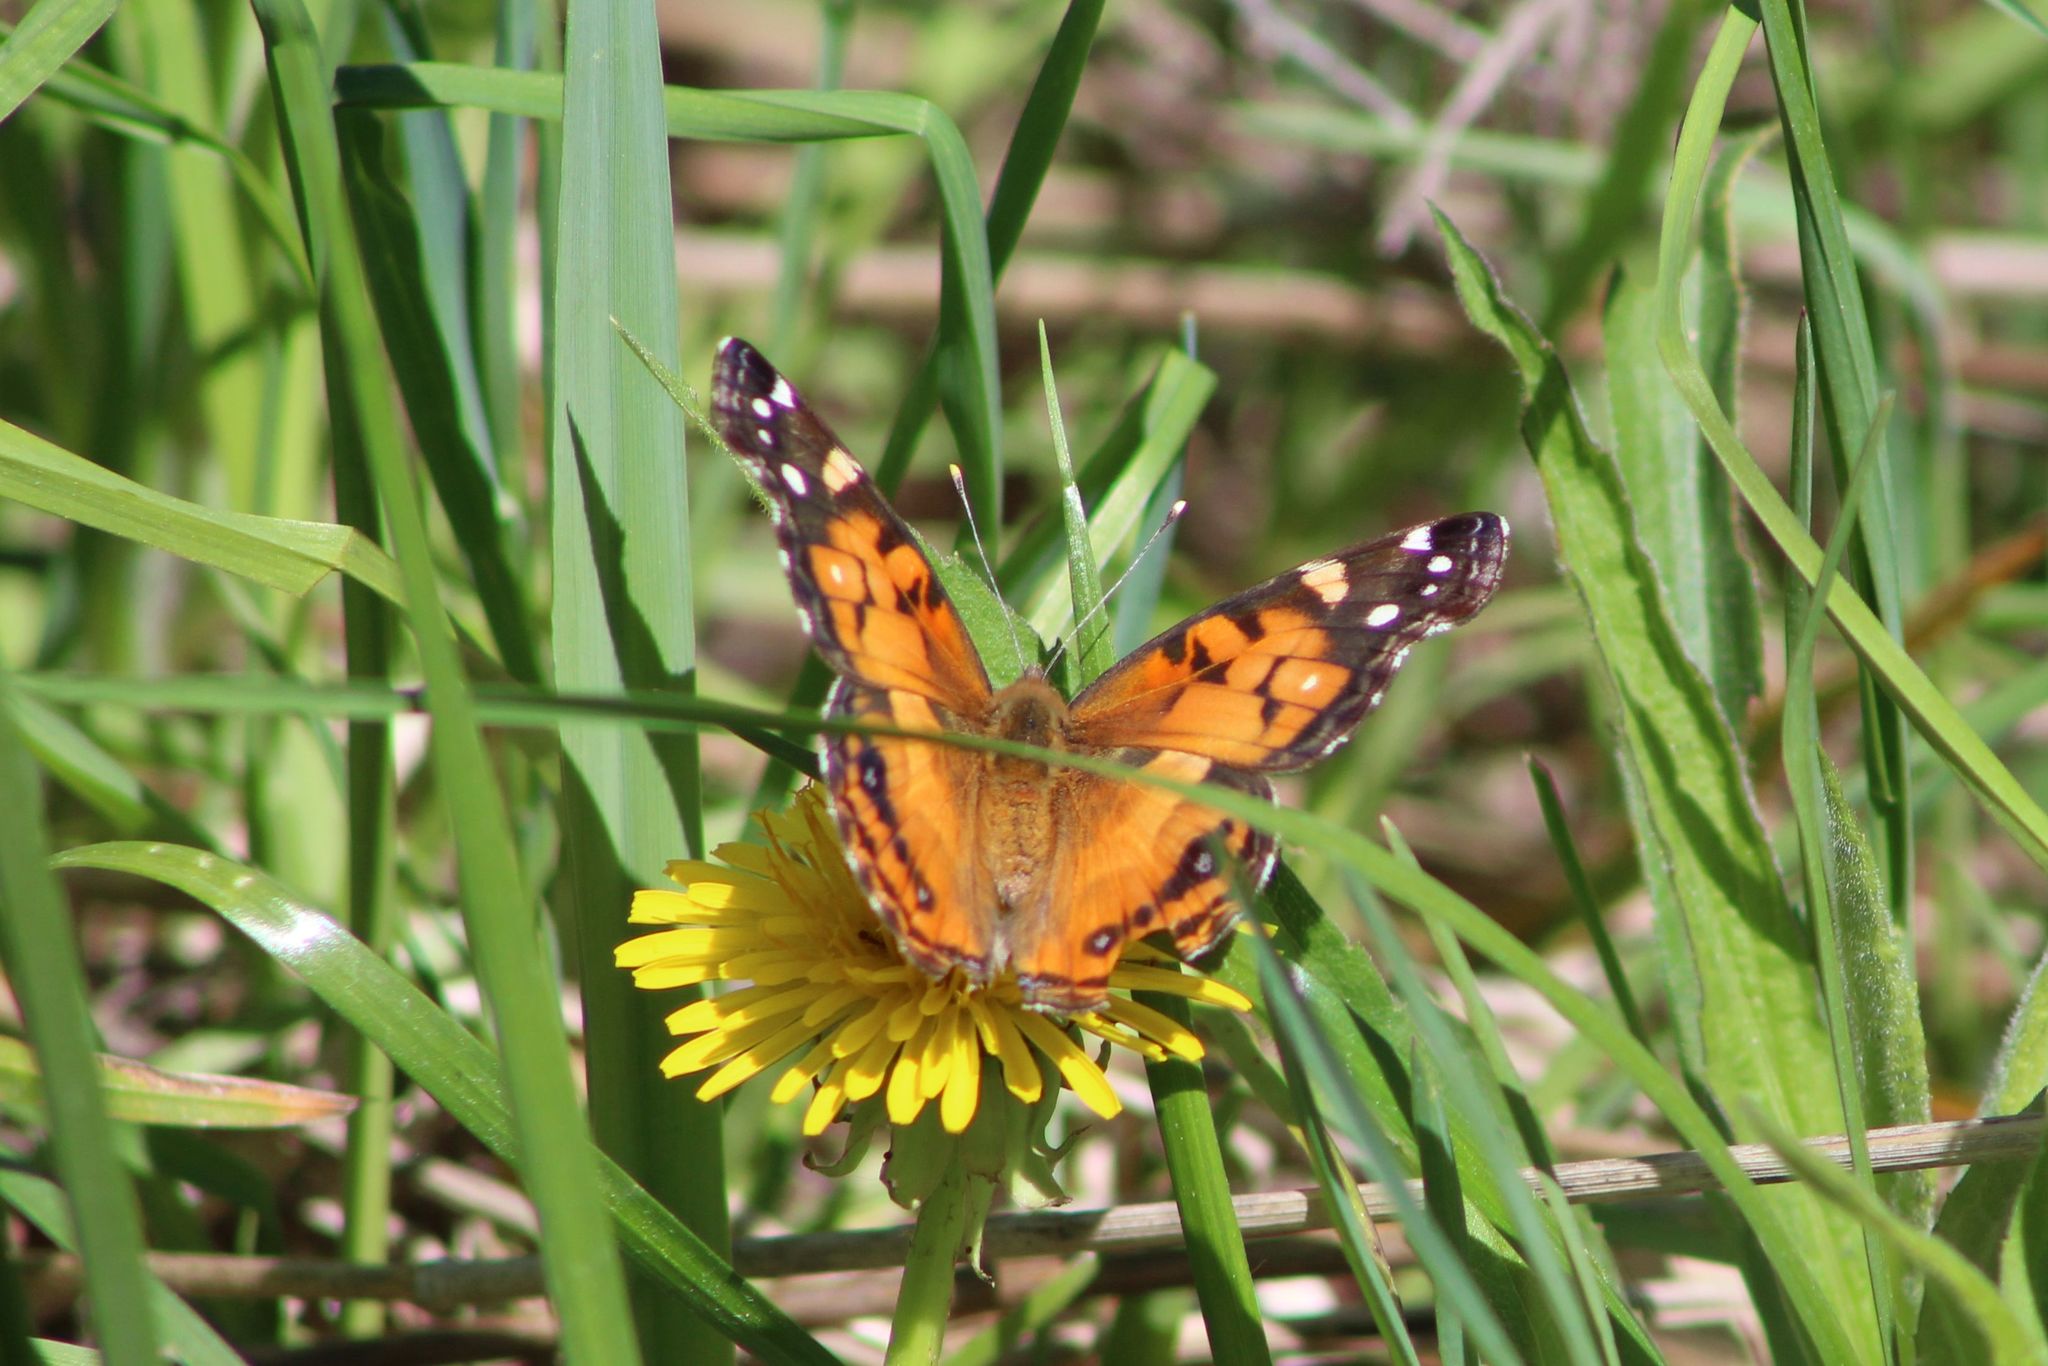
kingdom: Animalia
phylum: Arthropoda
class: Insecta
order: Lepidoptera
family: Nymphalidae
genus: Vanessa
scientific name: Vanessa virginiensis
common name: American lady
